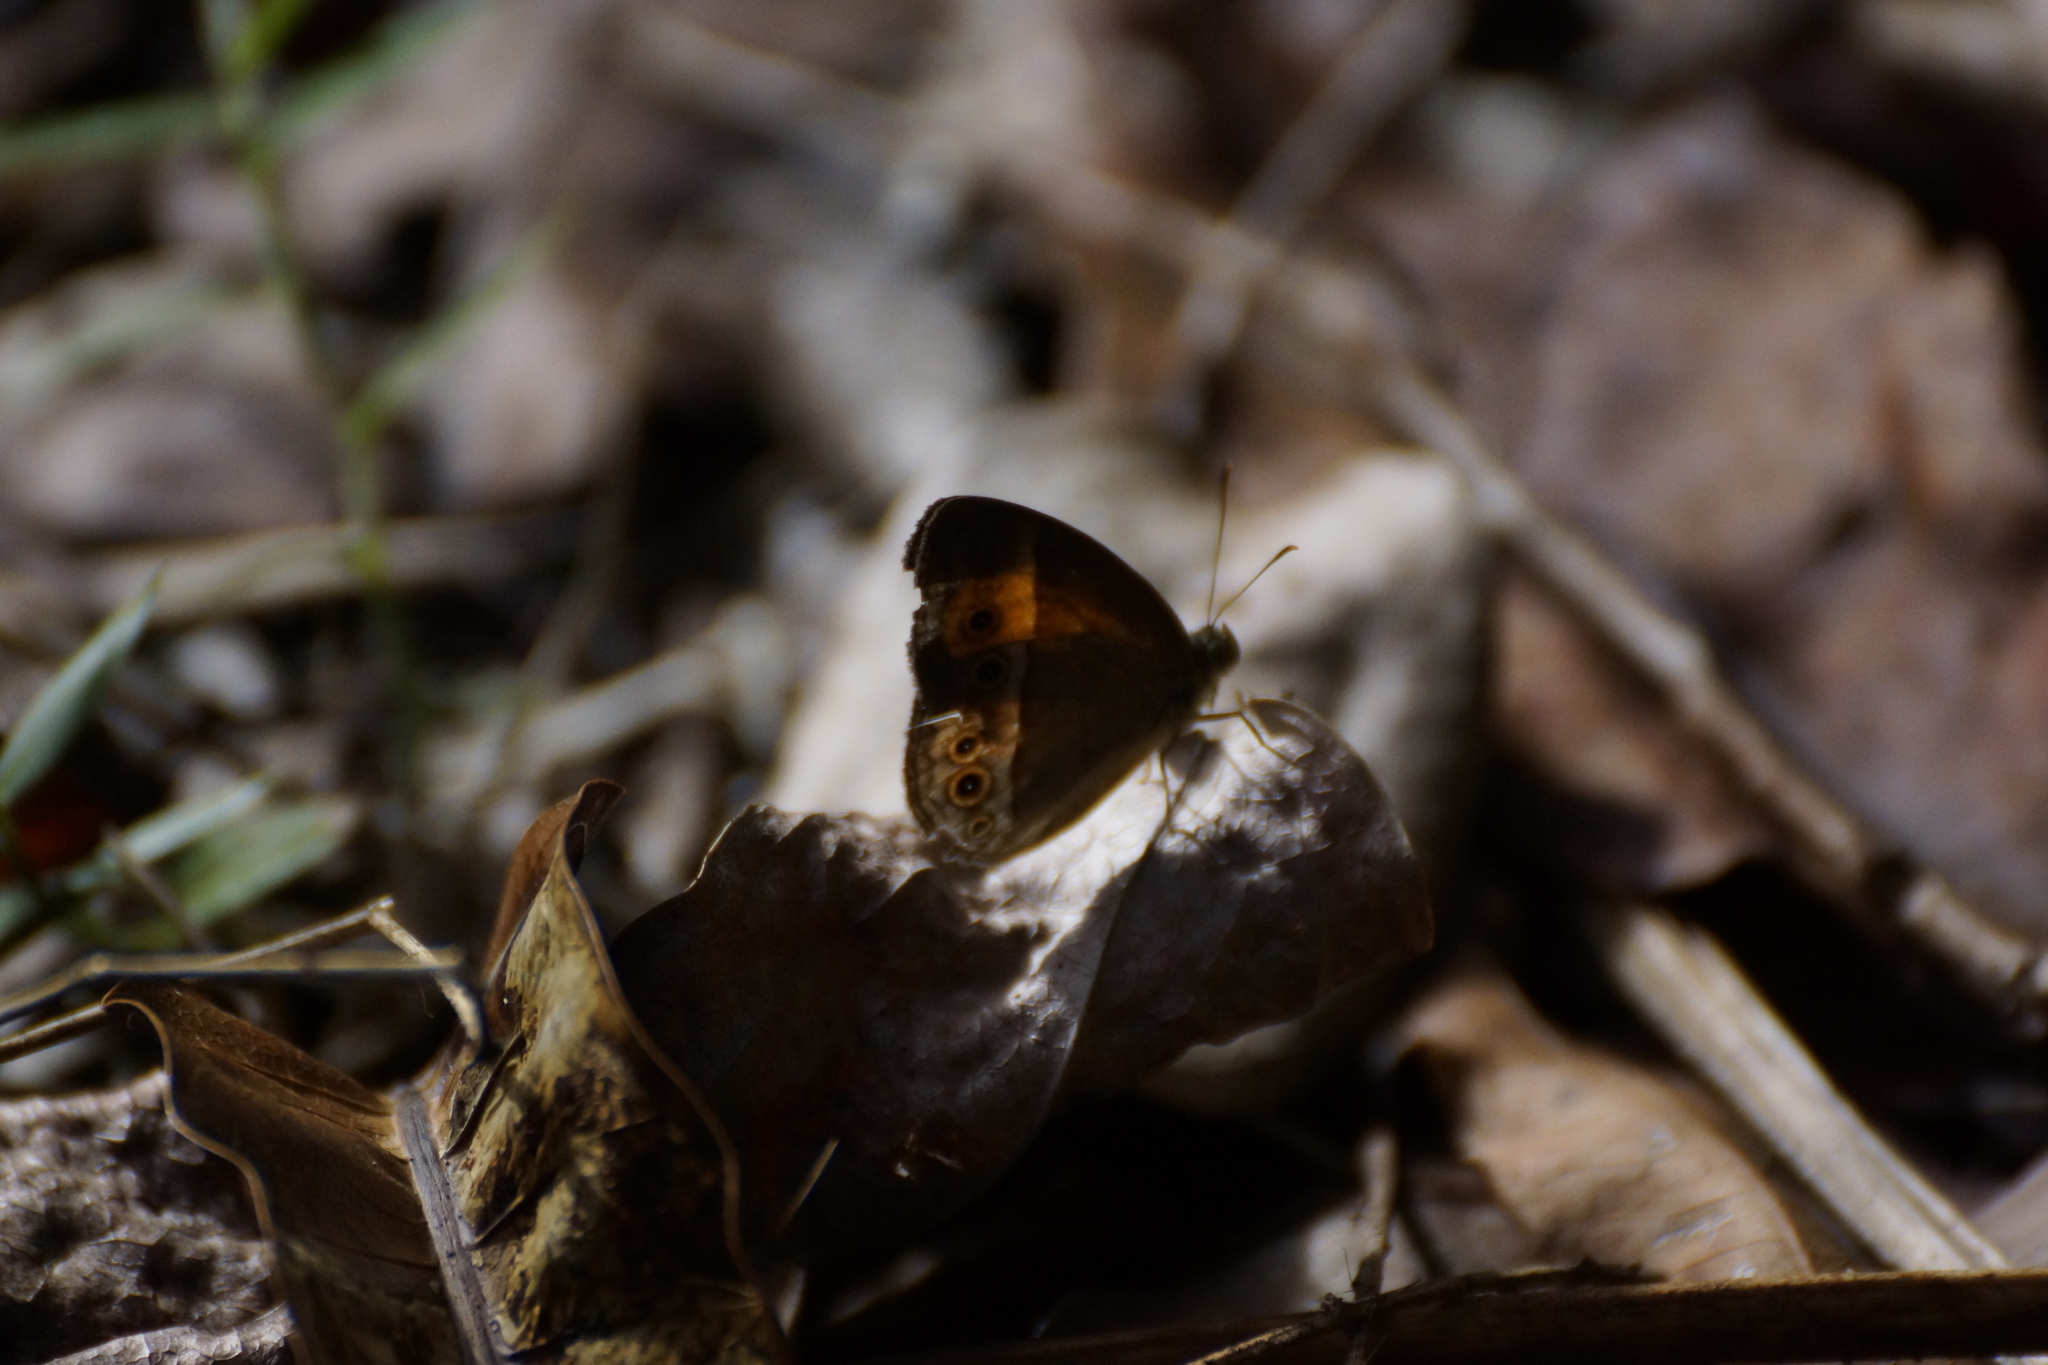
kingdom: Animalia
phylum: Arthropoda
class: Insecta
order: Lepidoptera
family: Nymphalidae
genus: Mycalesis
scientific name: Mycalesis terminus
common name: Orange bushbrown
